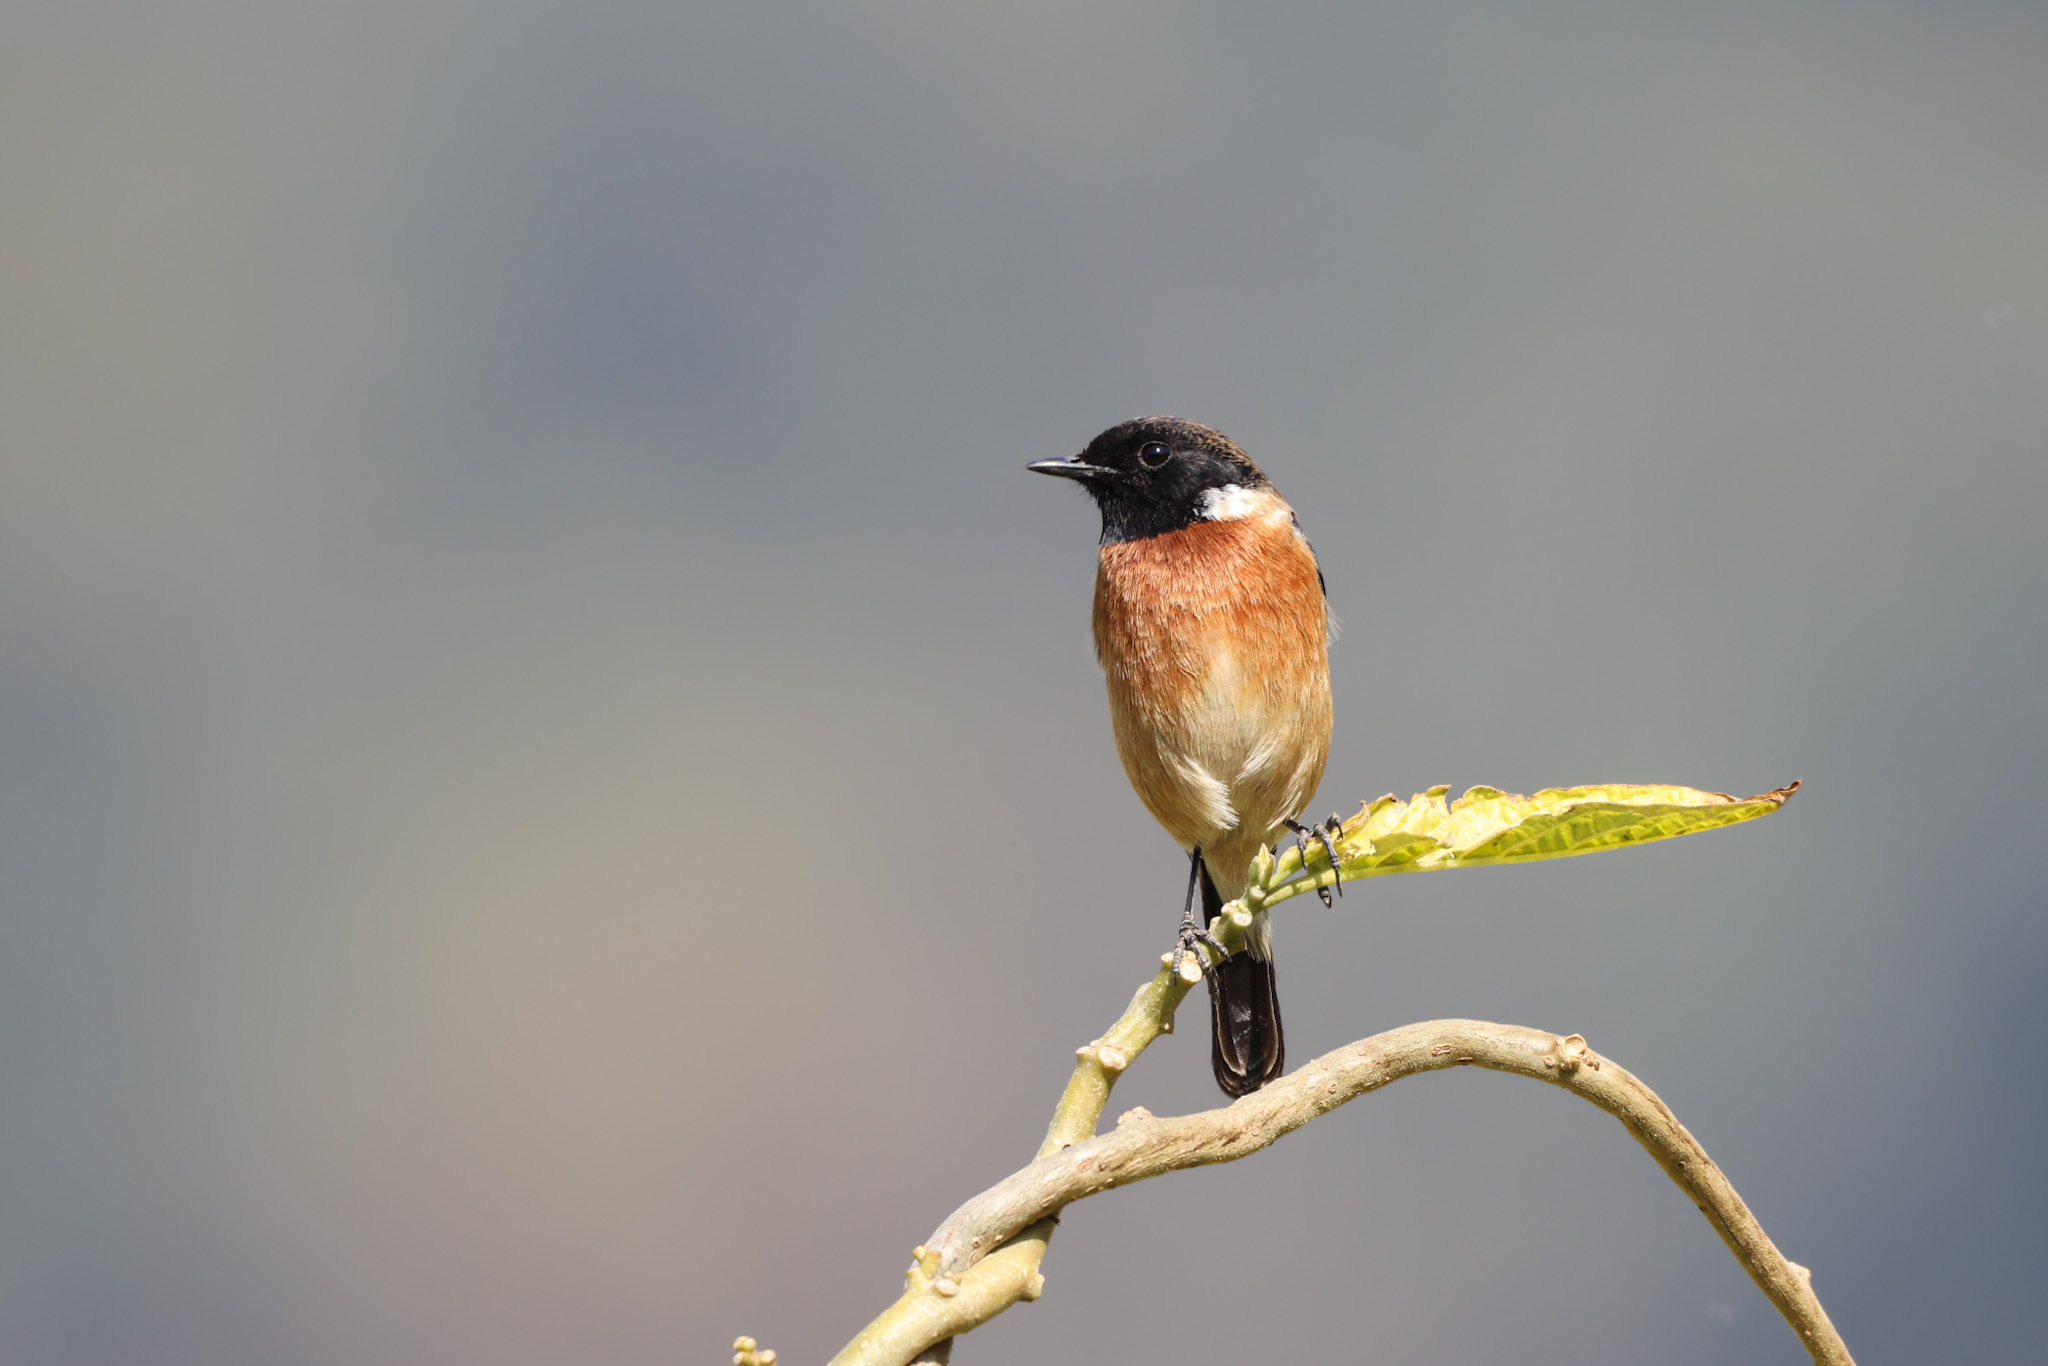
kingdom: Animalia
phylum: Chordata
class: Aves
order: Passeriformes
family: Muscicapidae
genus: Saxicola
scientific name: Saxicola maurus
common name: Siberian stonechat
